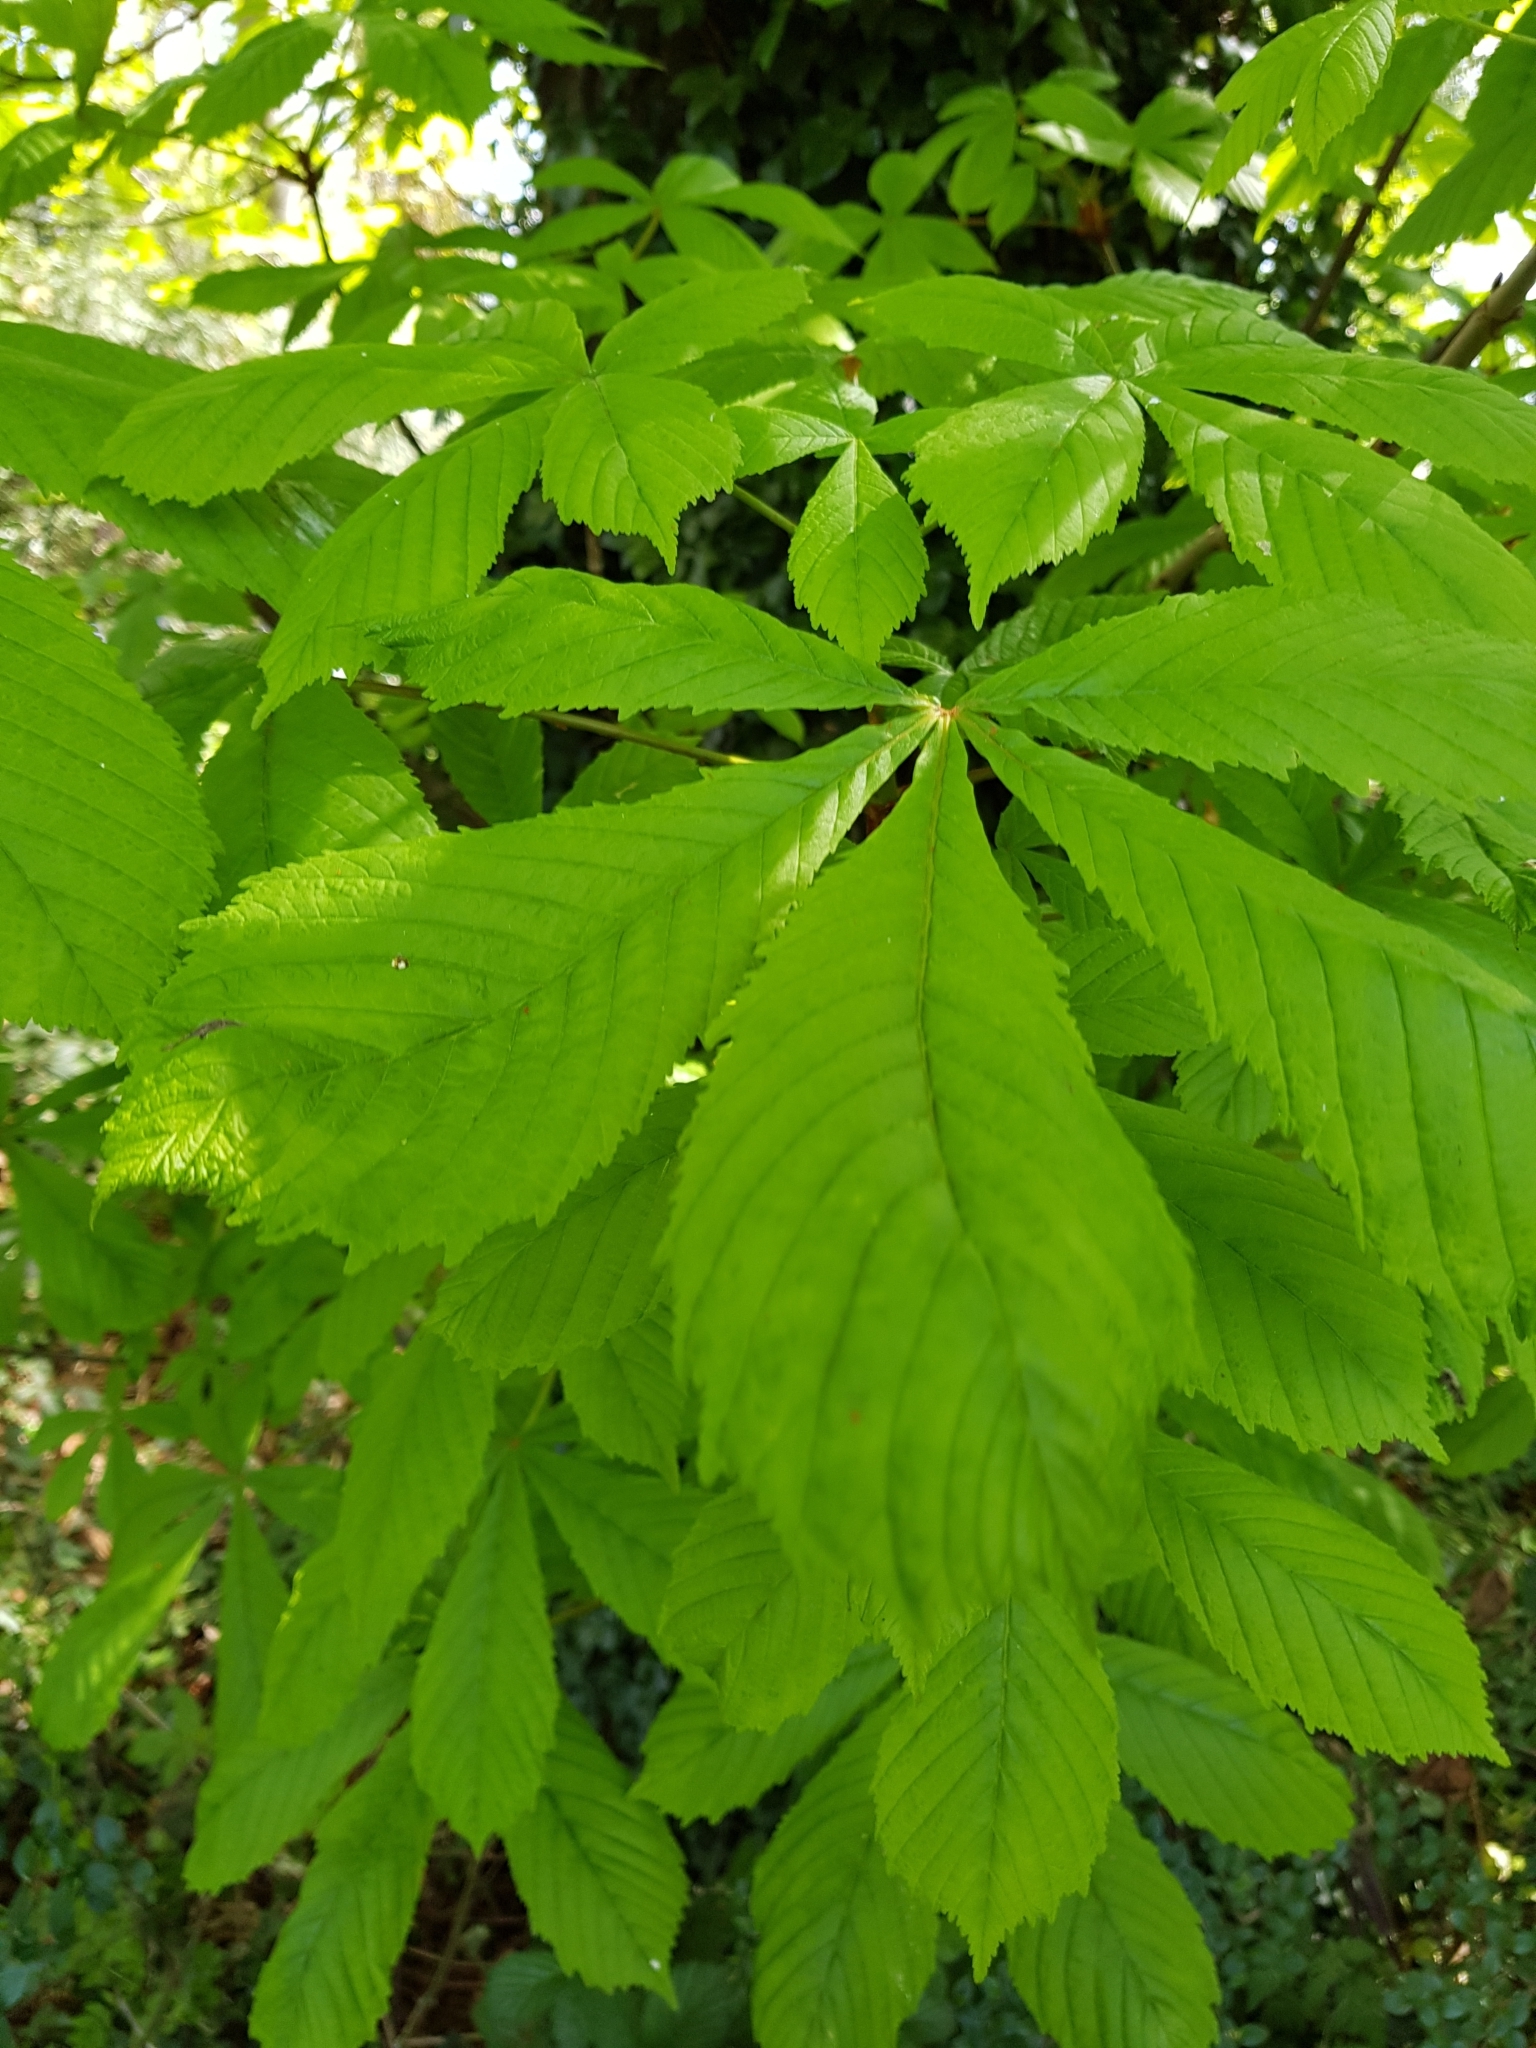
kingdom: Plantae
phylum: Tracheophyta
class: Magnoliopsida
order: Sapindales
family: Sapindaceae
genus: Aesculus
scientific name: Aesculus hippocastanum
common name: Horse-chestnut
